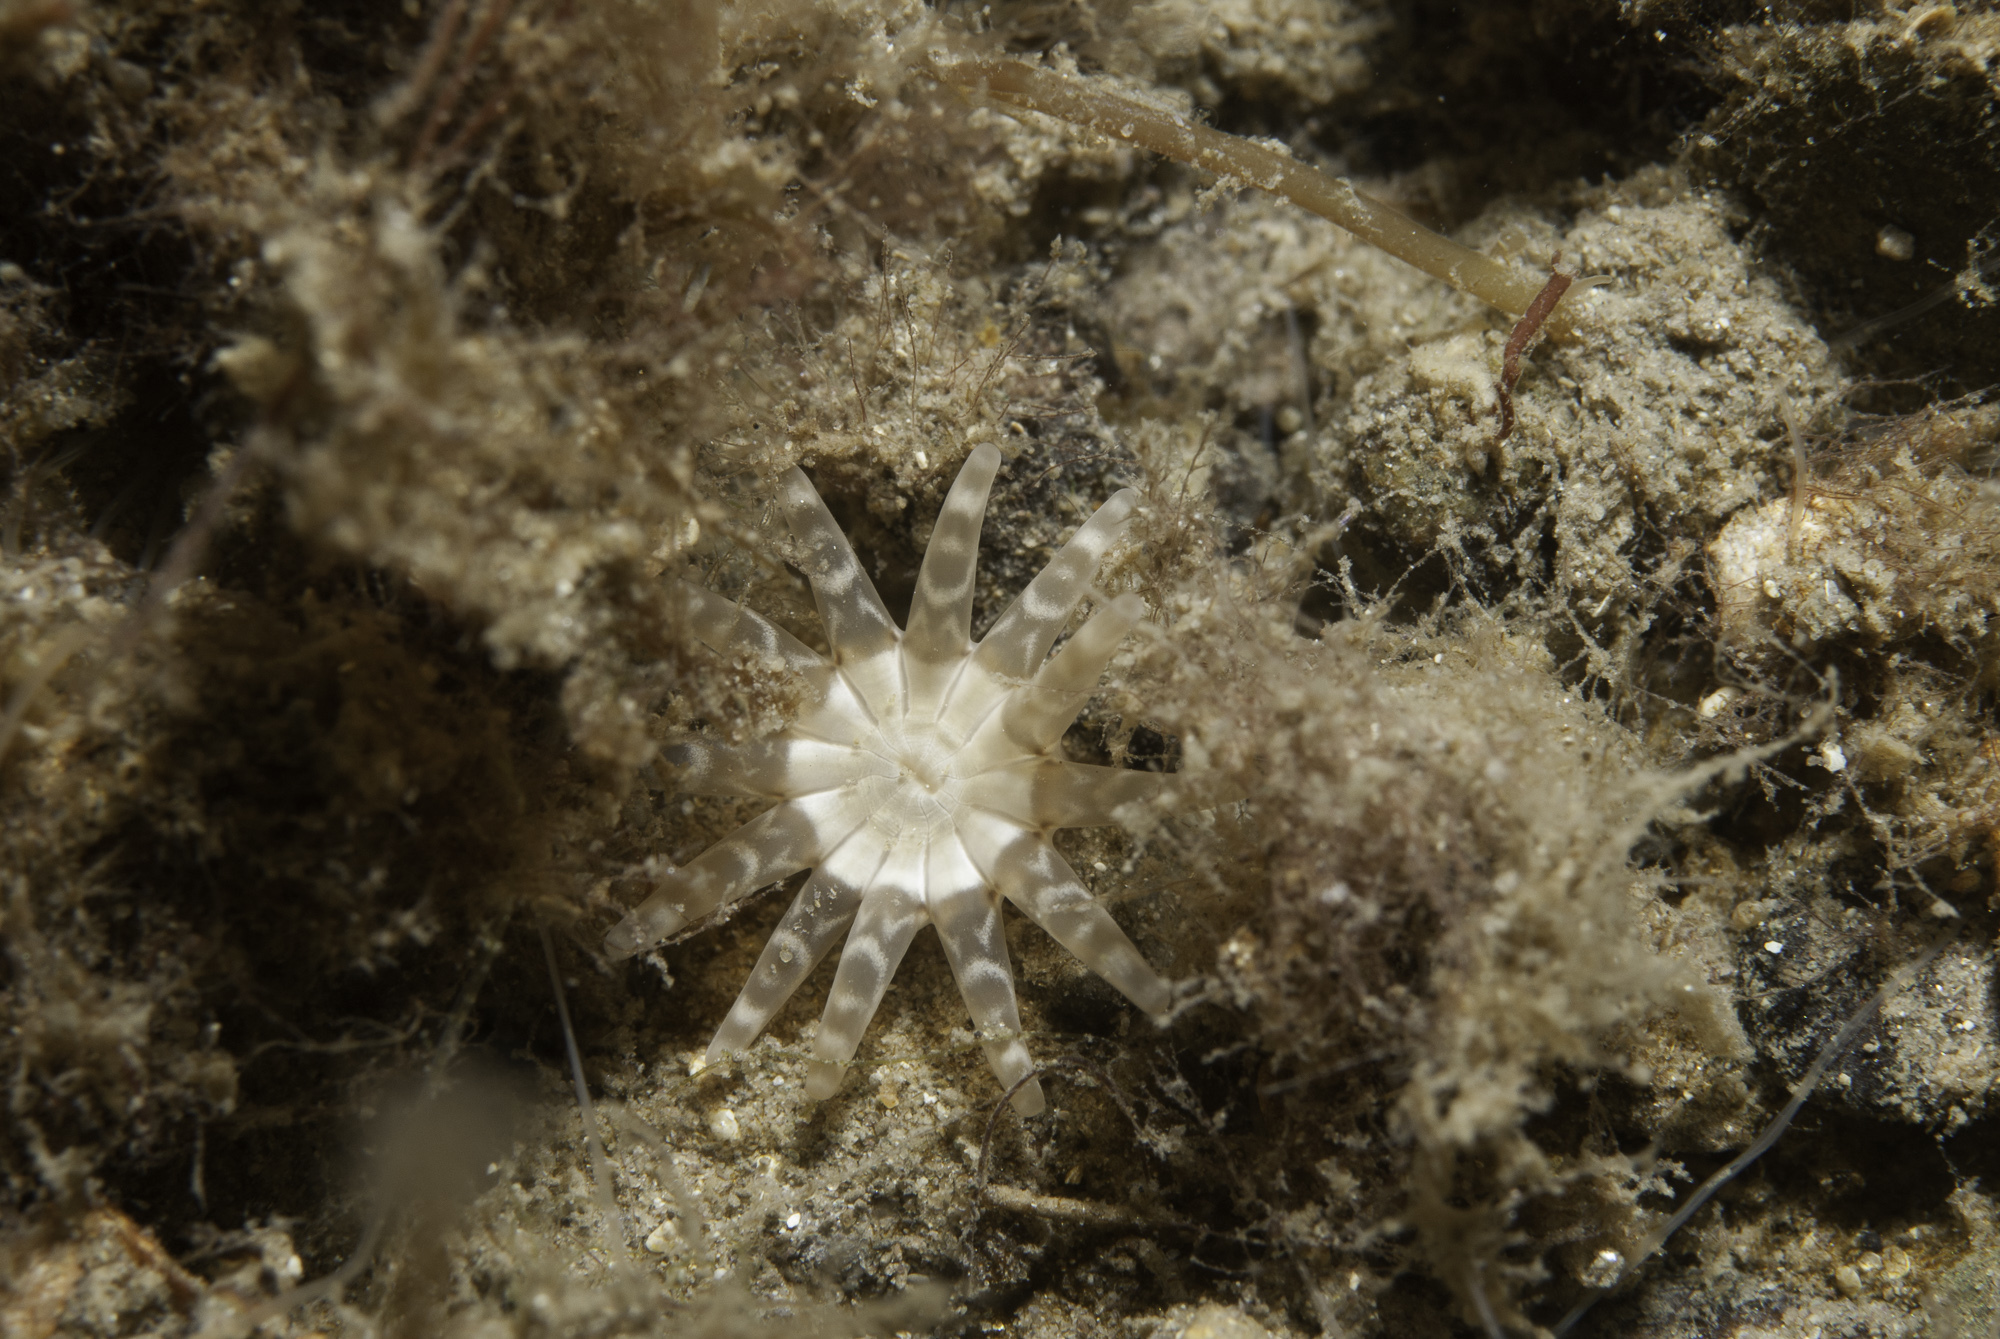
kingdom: Animalia
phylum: Cnidaria
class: Anthozoa
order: Actiniaria
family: Halcampidae
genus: Halcampa
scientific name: Halcampa chrysanthellum
